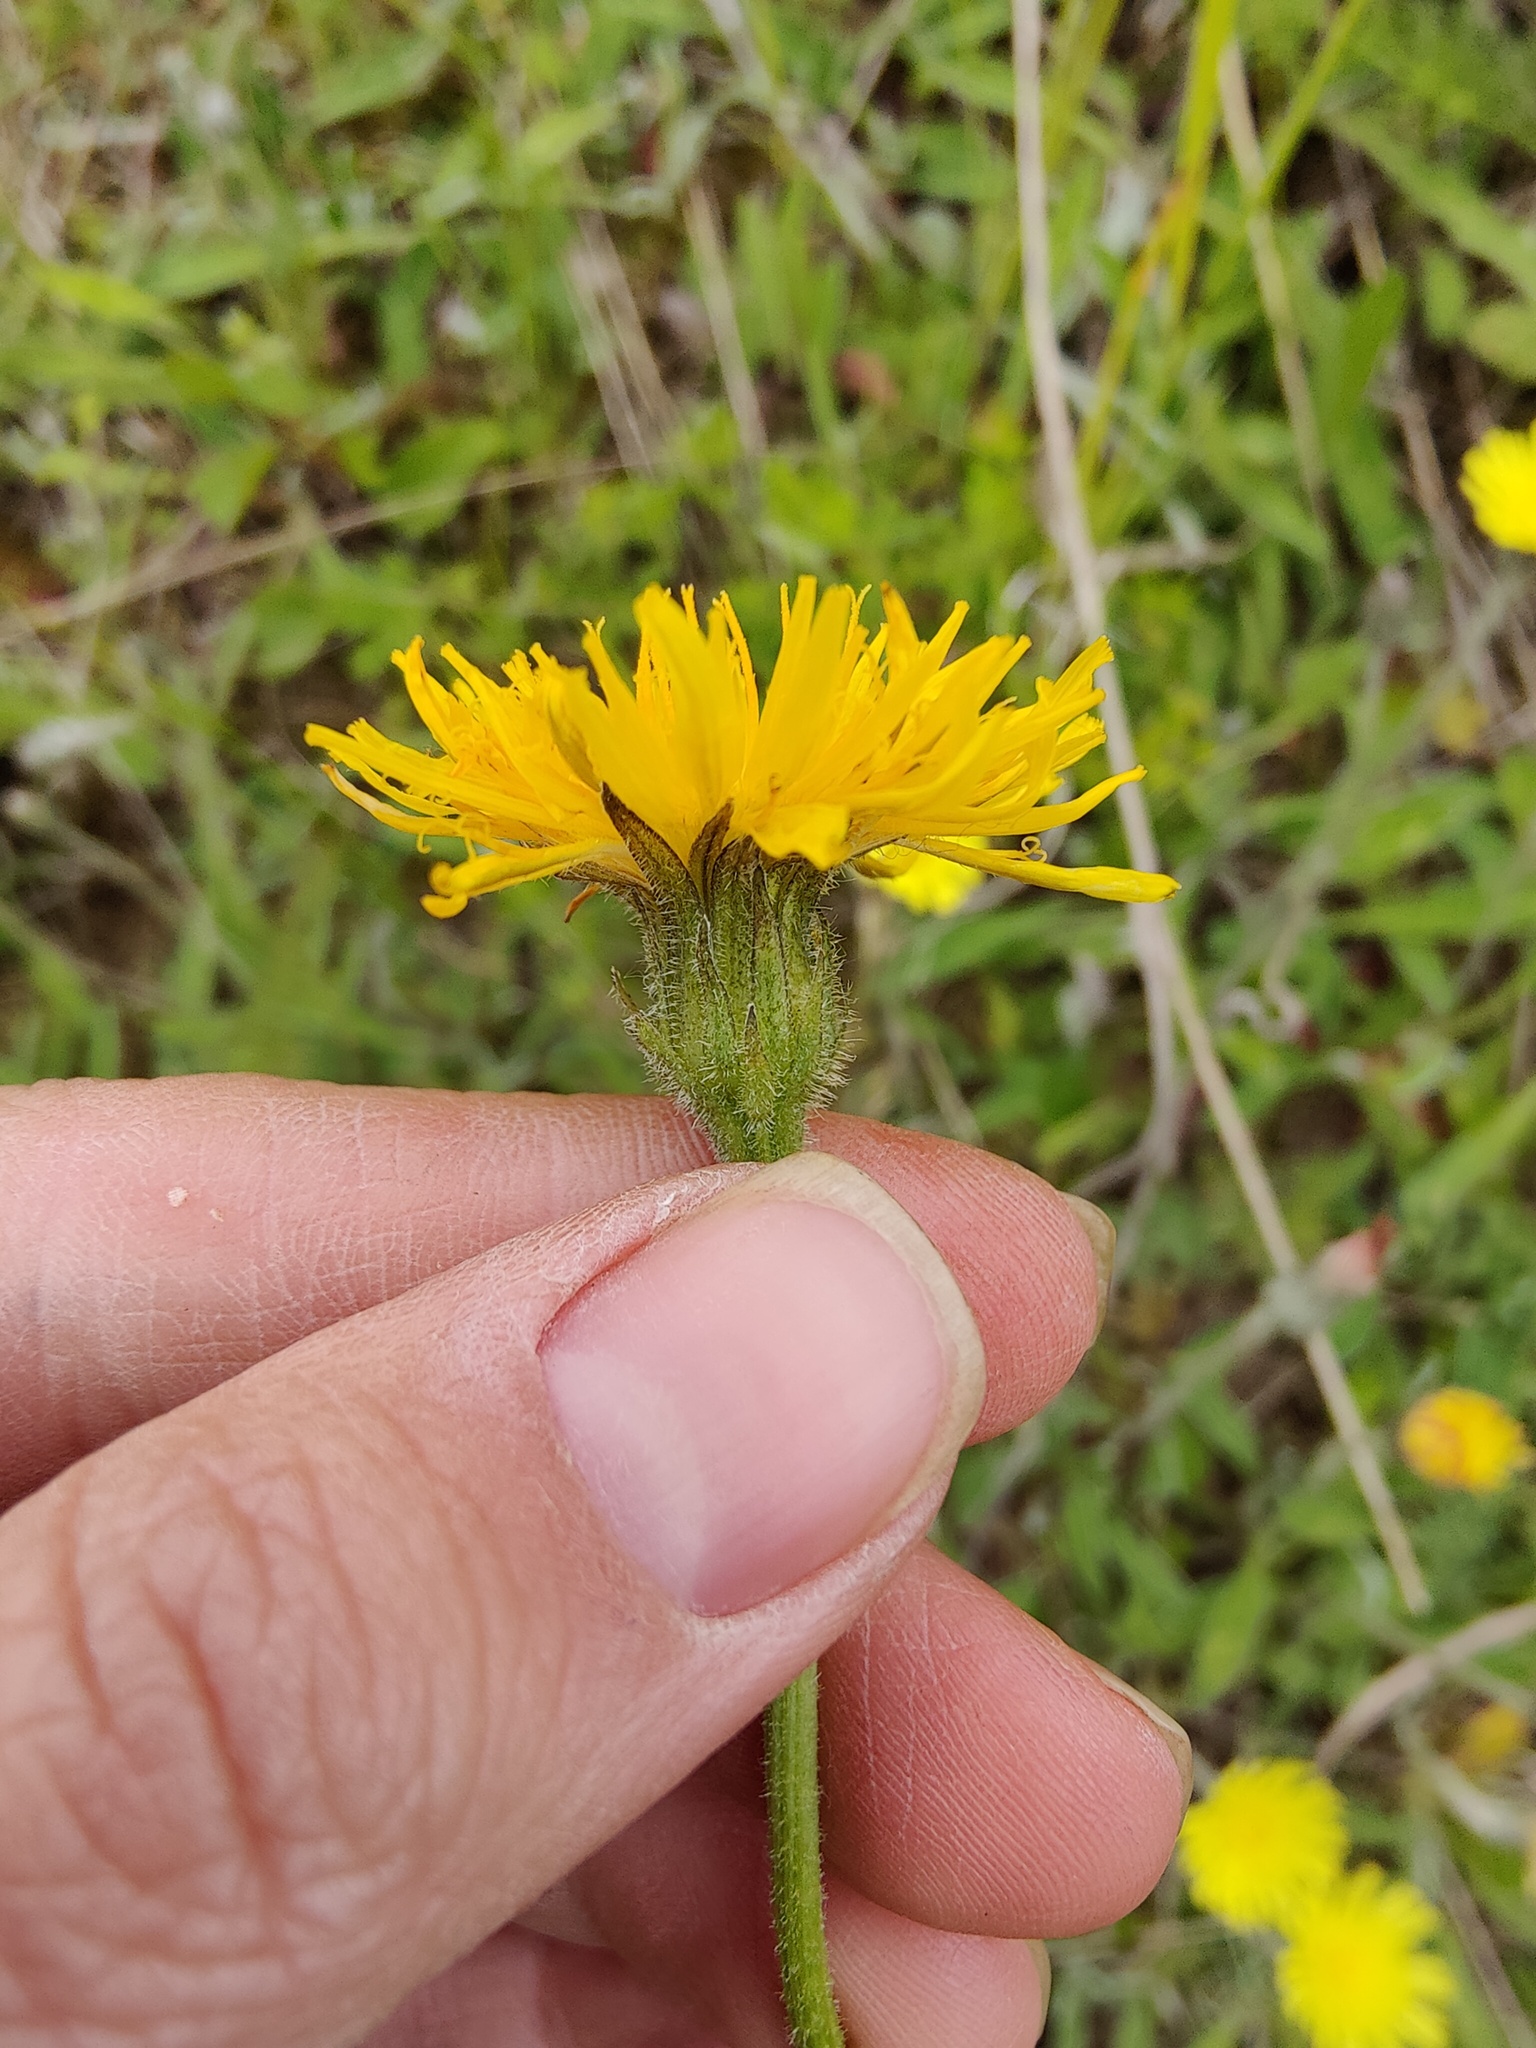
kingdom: Plantae
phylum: Tracheophyta
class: Magnoliopsida
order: Asterales
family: Asteraceae
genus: Leontodon
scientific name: Leontodon hispidus
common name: Rough hawkbit
